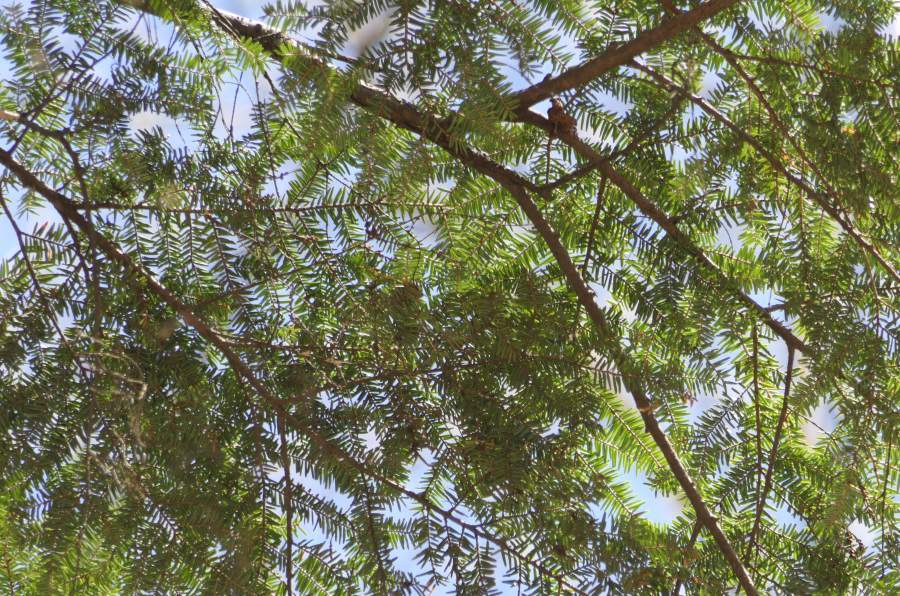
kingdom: Plantae
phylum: Tracheophyta
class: Pinopsida
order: Pinales
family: Pinaceae
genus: Tsuga
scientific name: Tsuga canadensis
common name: Eastern hemlock
